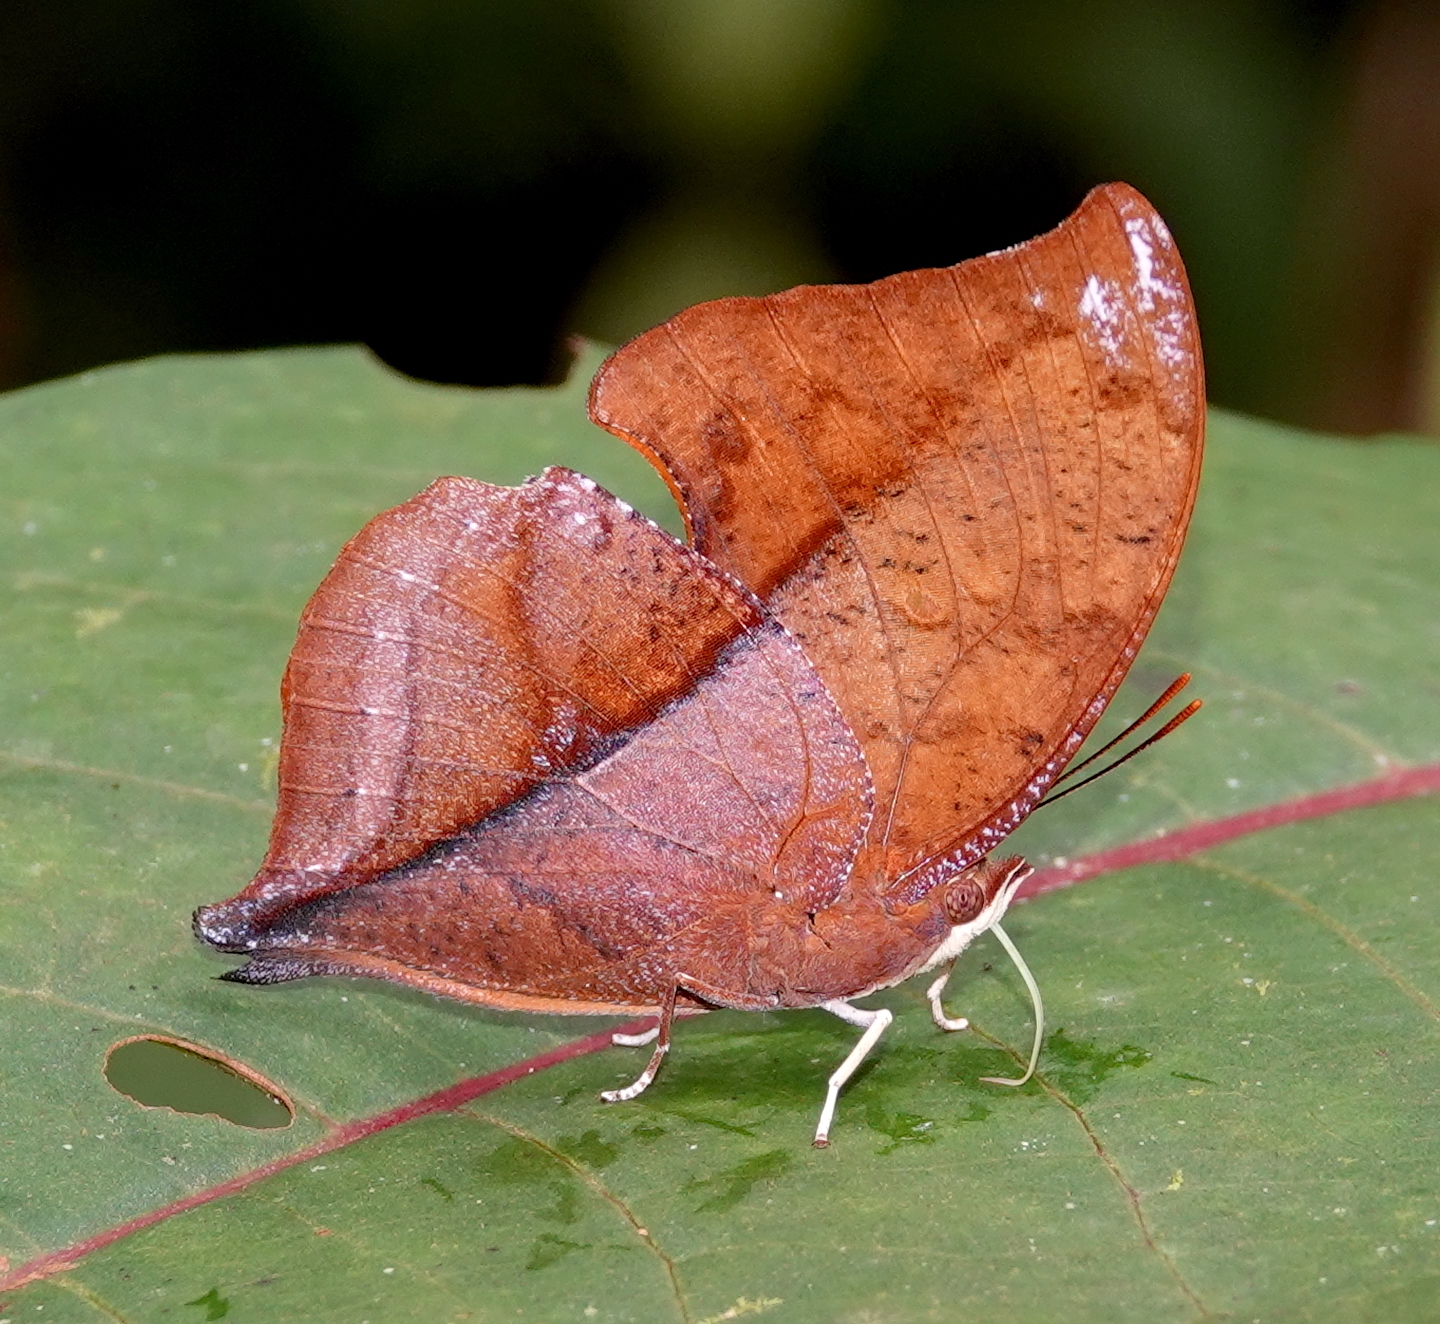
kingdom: Animalia
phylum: Arthropoda
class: Insecta
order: Lepidoptera
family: Nymphalidae
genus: Zaretis
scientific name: Zaretis elianahenrichae
